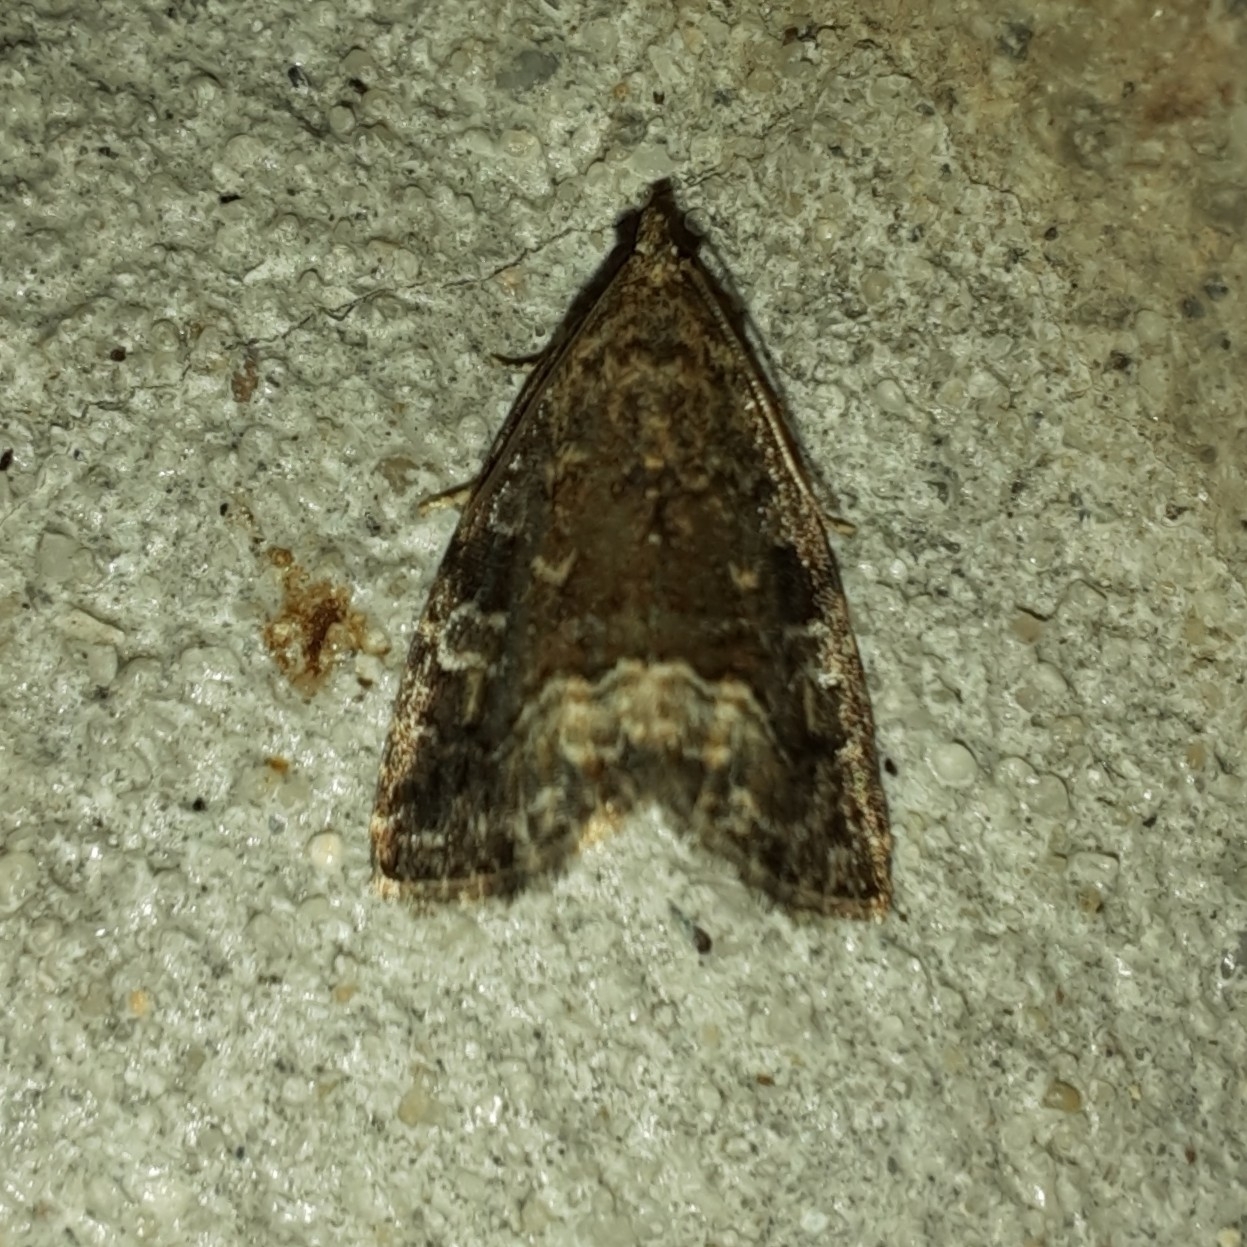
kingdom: Animalia
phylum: Arthropoda
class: Insecta
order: Lepidoptera
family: Noctuidae
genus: Deltote
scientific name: Deltote pygarga
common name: Marbled white spot
